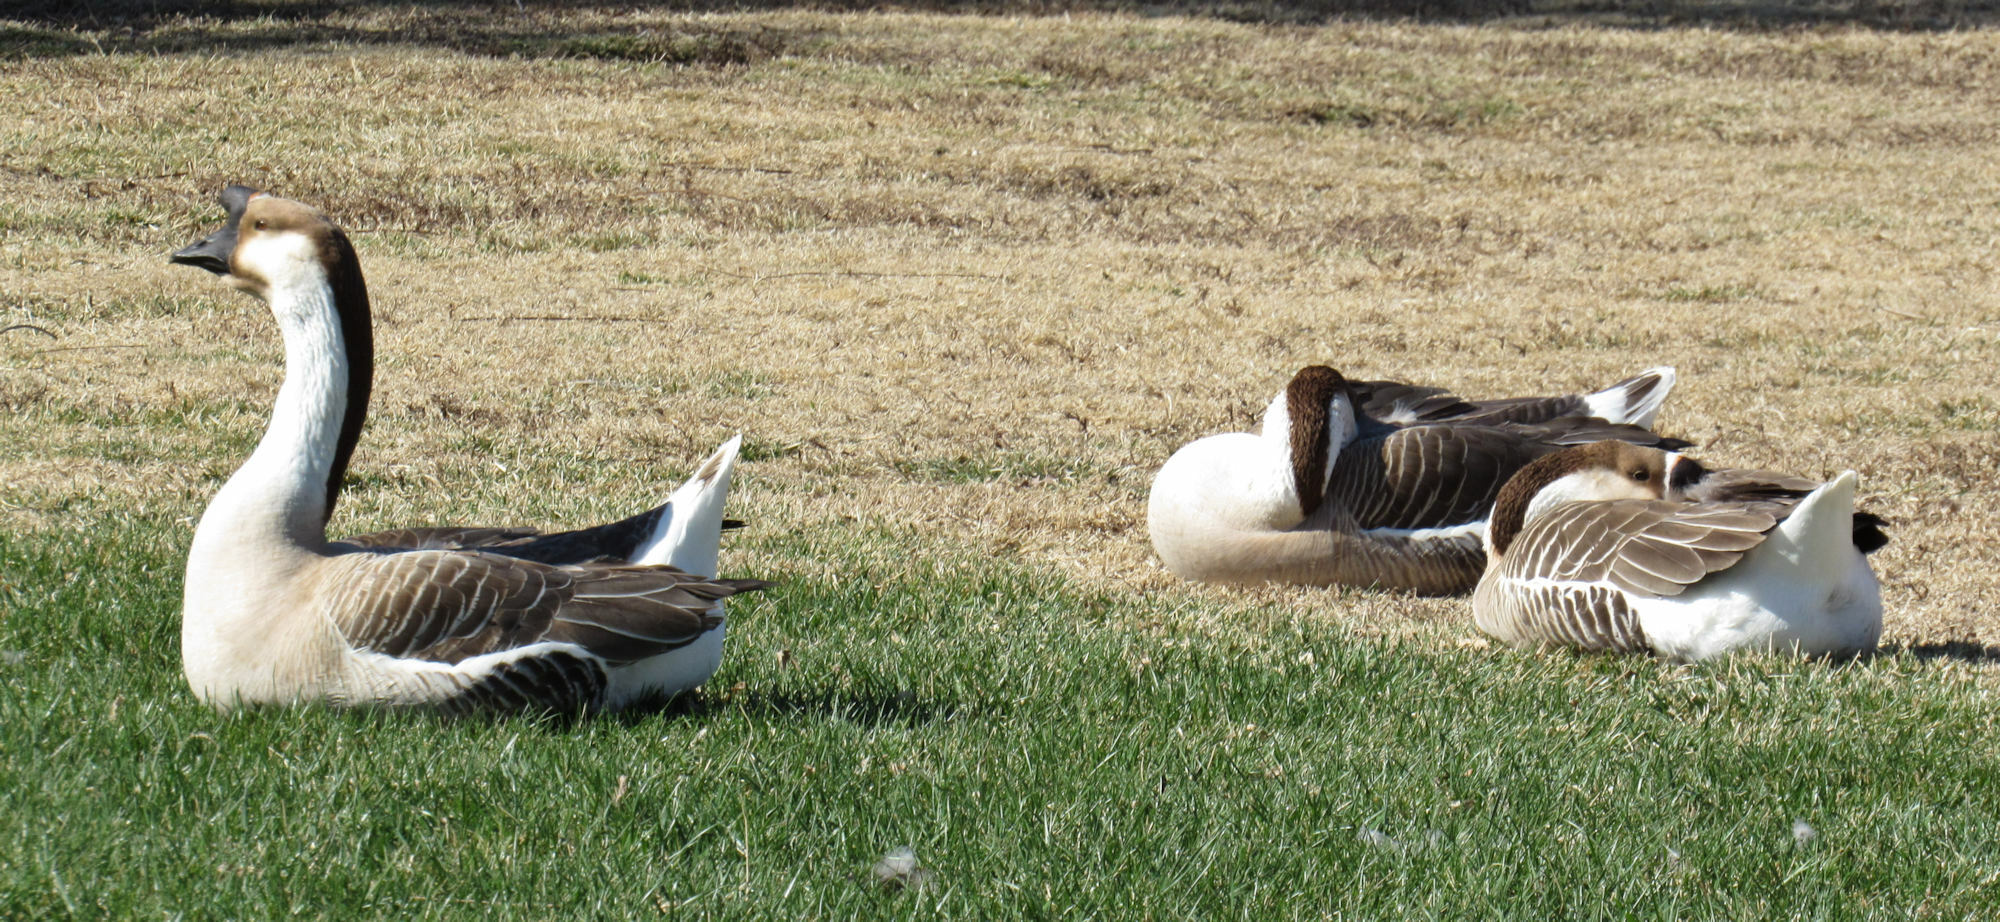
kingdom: Animalia
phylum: Chordata
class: Aves
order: Anseriformes
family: Anatidae
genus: Anser
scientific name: Anser cygnoides
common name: Swan goose
